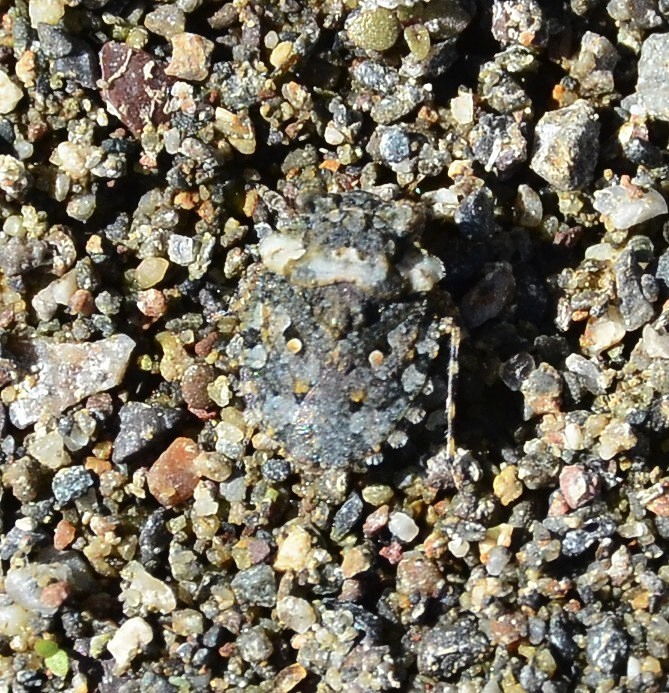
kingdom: Animalia
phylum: Arthropoda
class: Insecta
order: Hemiptera
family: Gelastocoridae
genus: Gelastocoris
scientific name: Gelastocoris oculatus
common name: Toad bug
